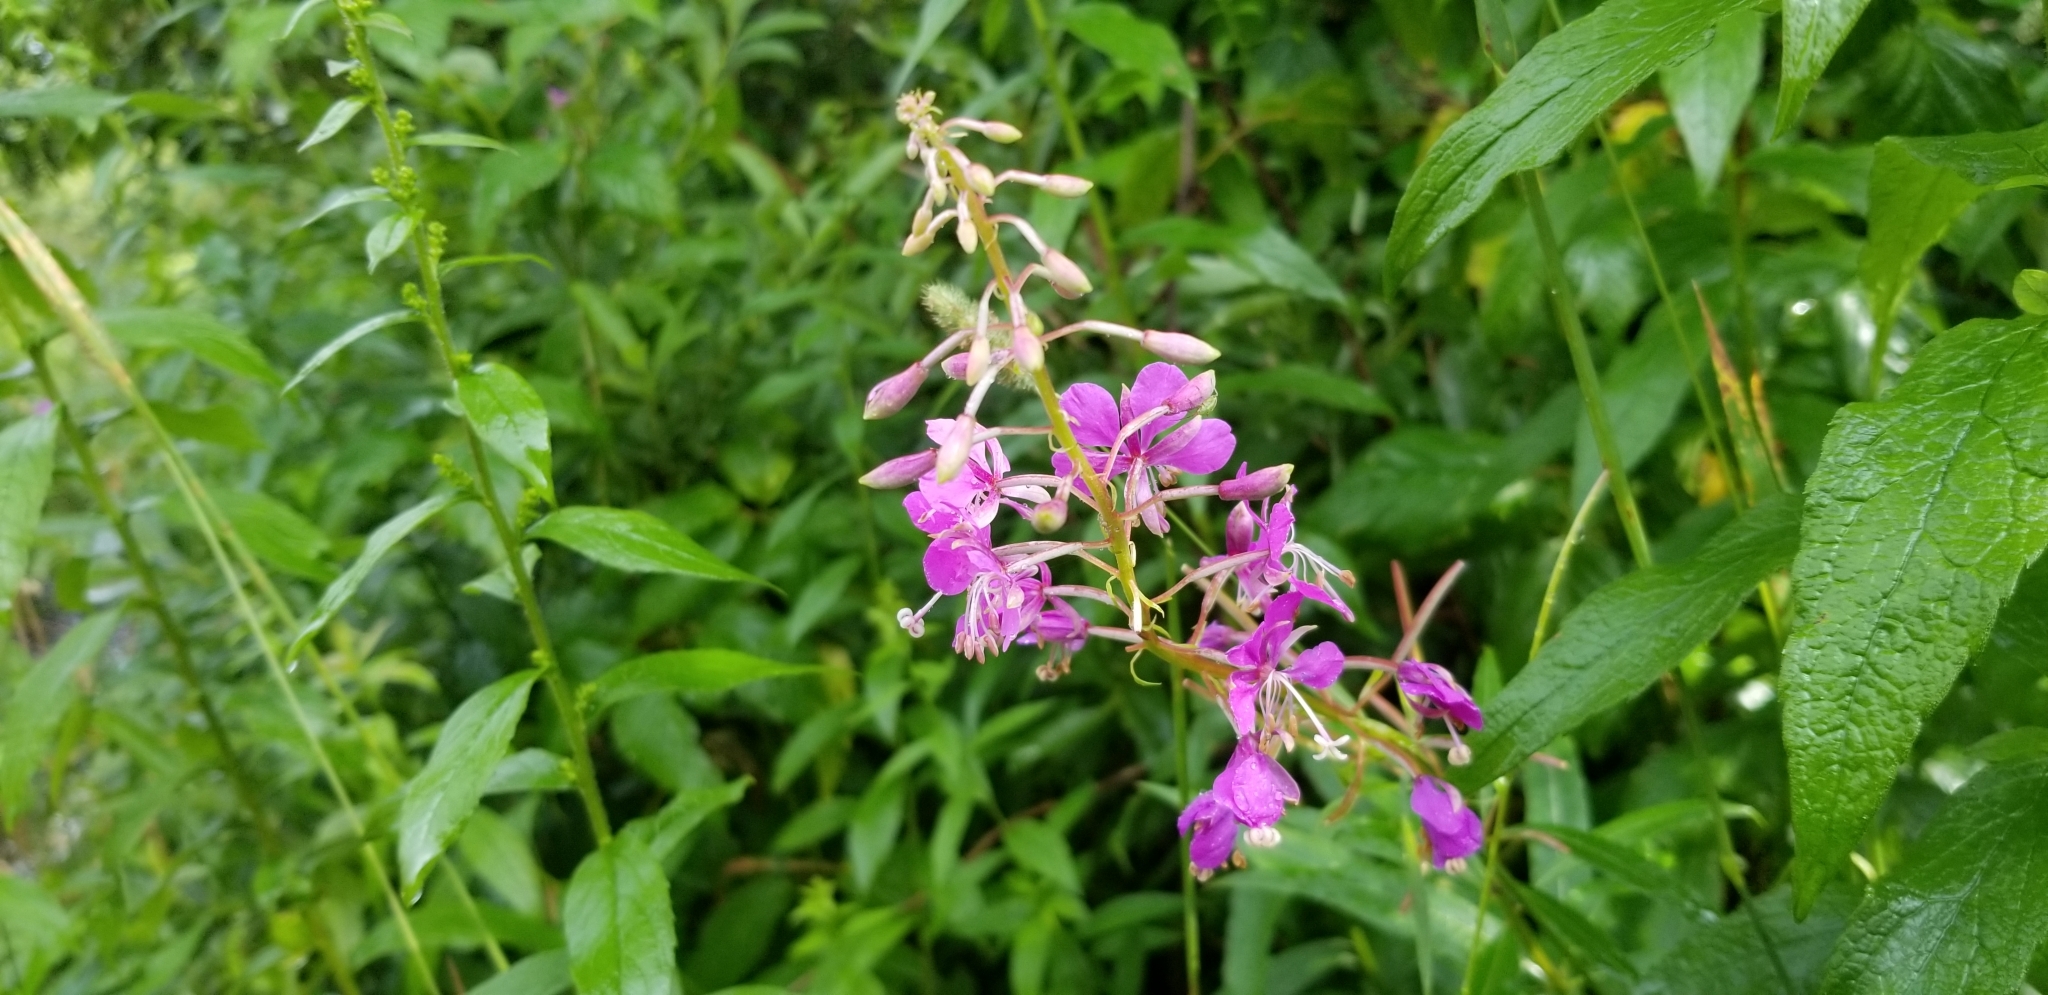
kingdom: Plantae
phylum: Tracheophyta
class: Magnoliopsida
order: Myrtales
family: Onagraceae
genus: Chamaenerion
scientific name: Chamaenerion angustifolium
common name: Fireweed
